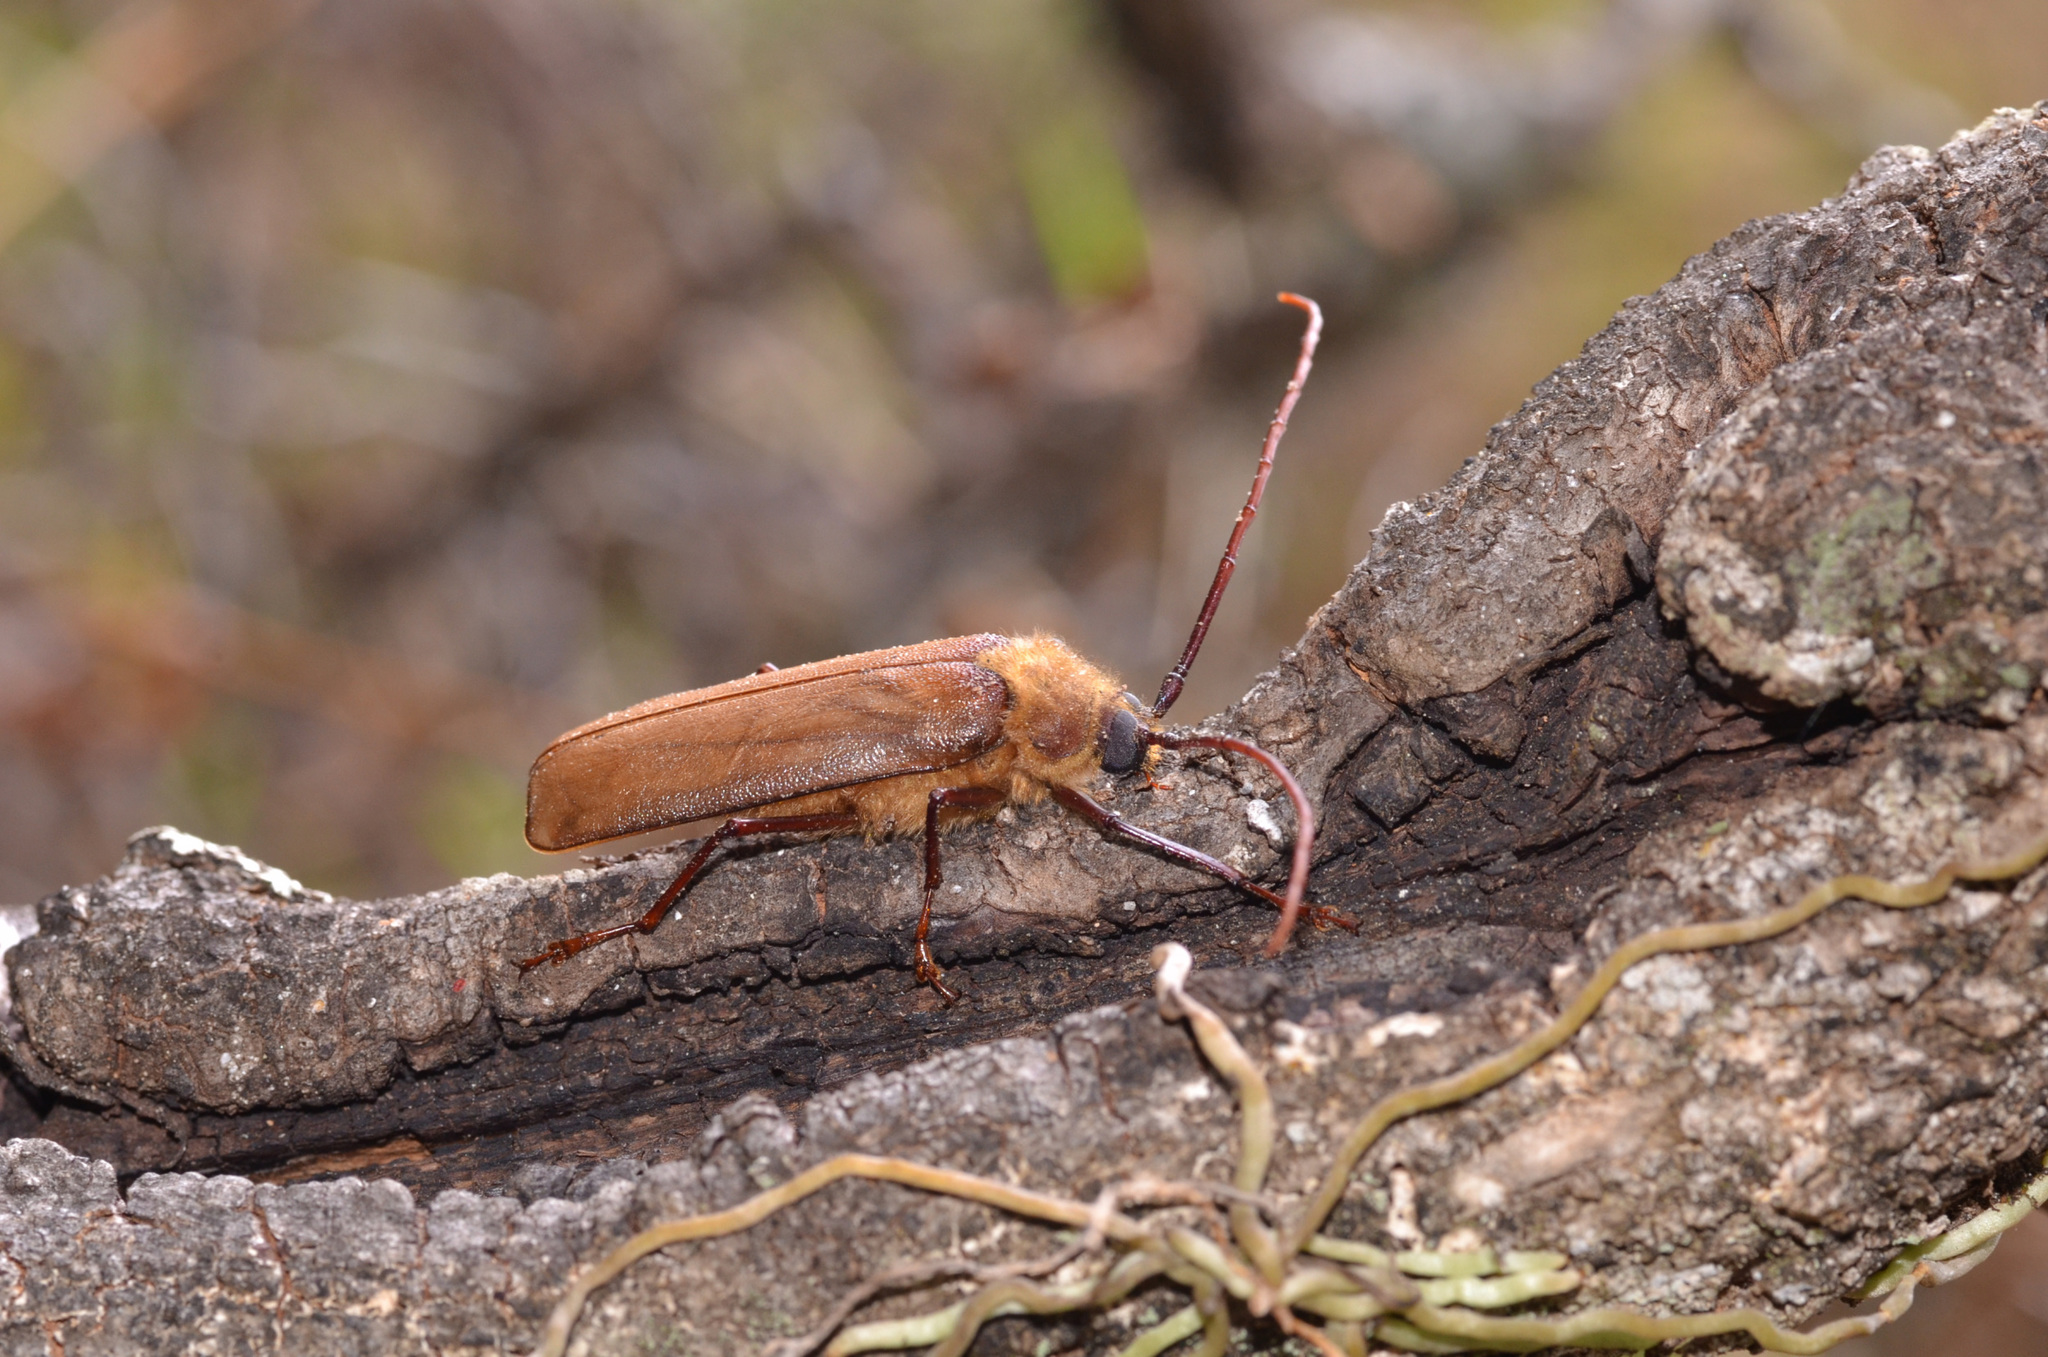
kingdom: Animalia
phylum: Arthropoda
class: Insecta
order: Coleoptera
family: Cerambycidae
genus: Erioderus
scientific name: Erioderus pallens
